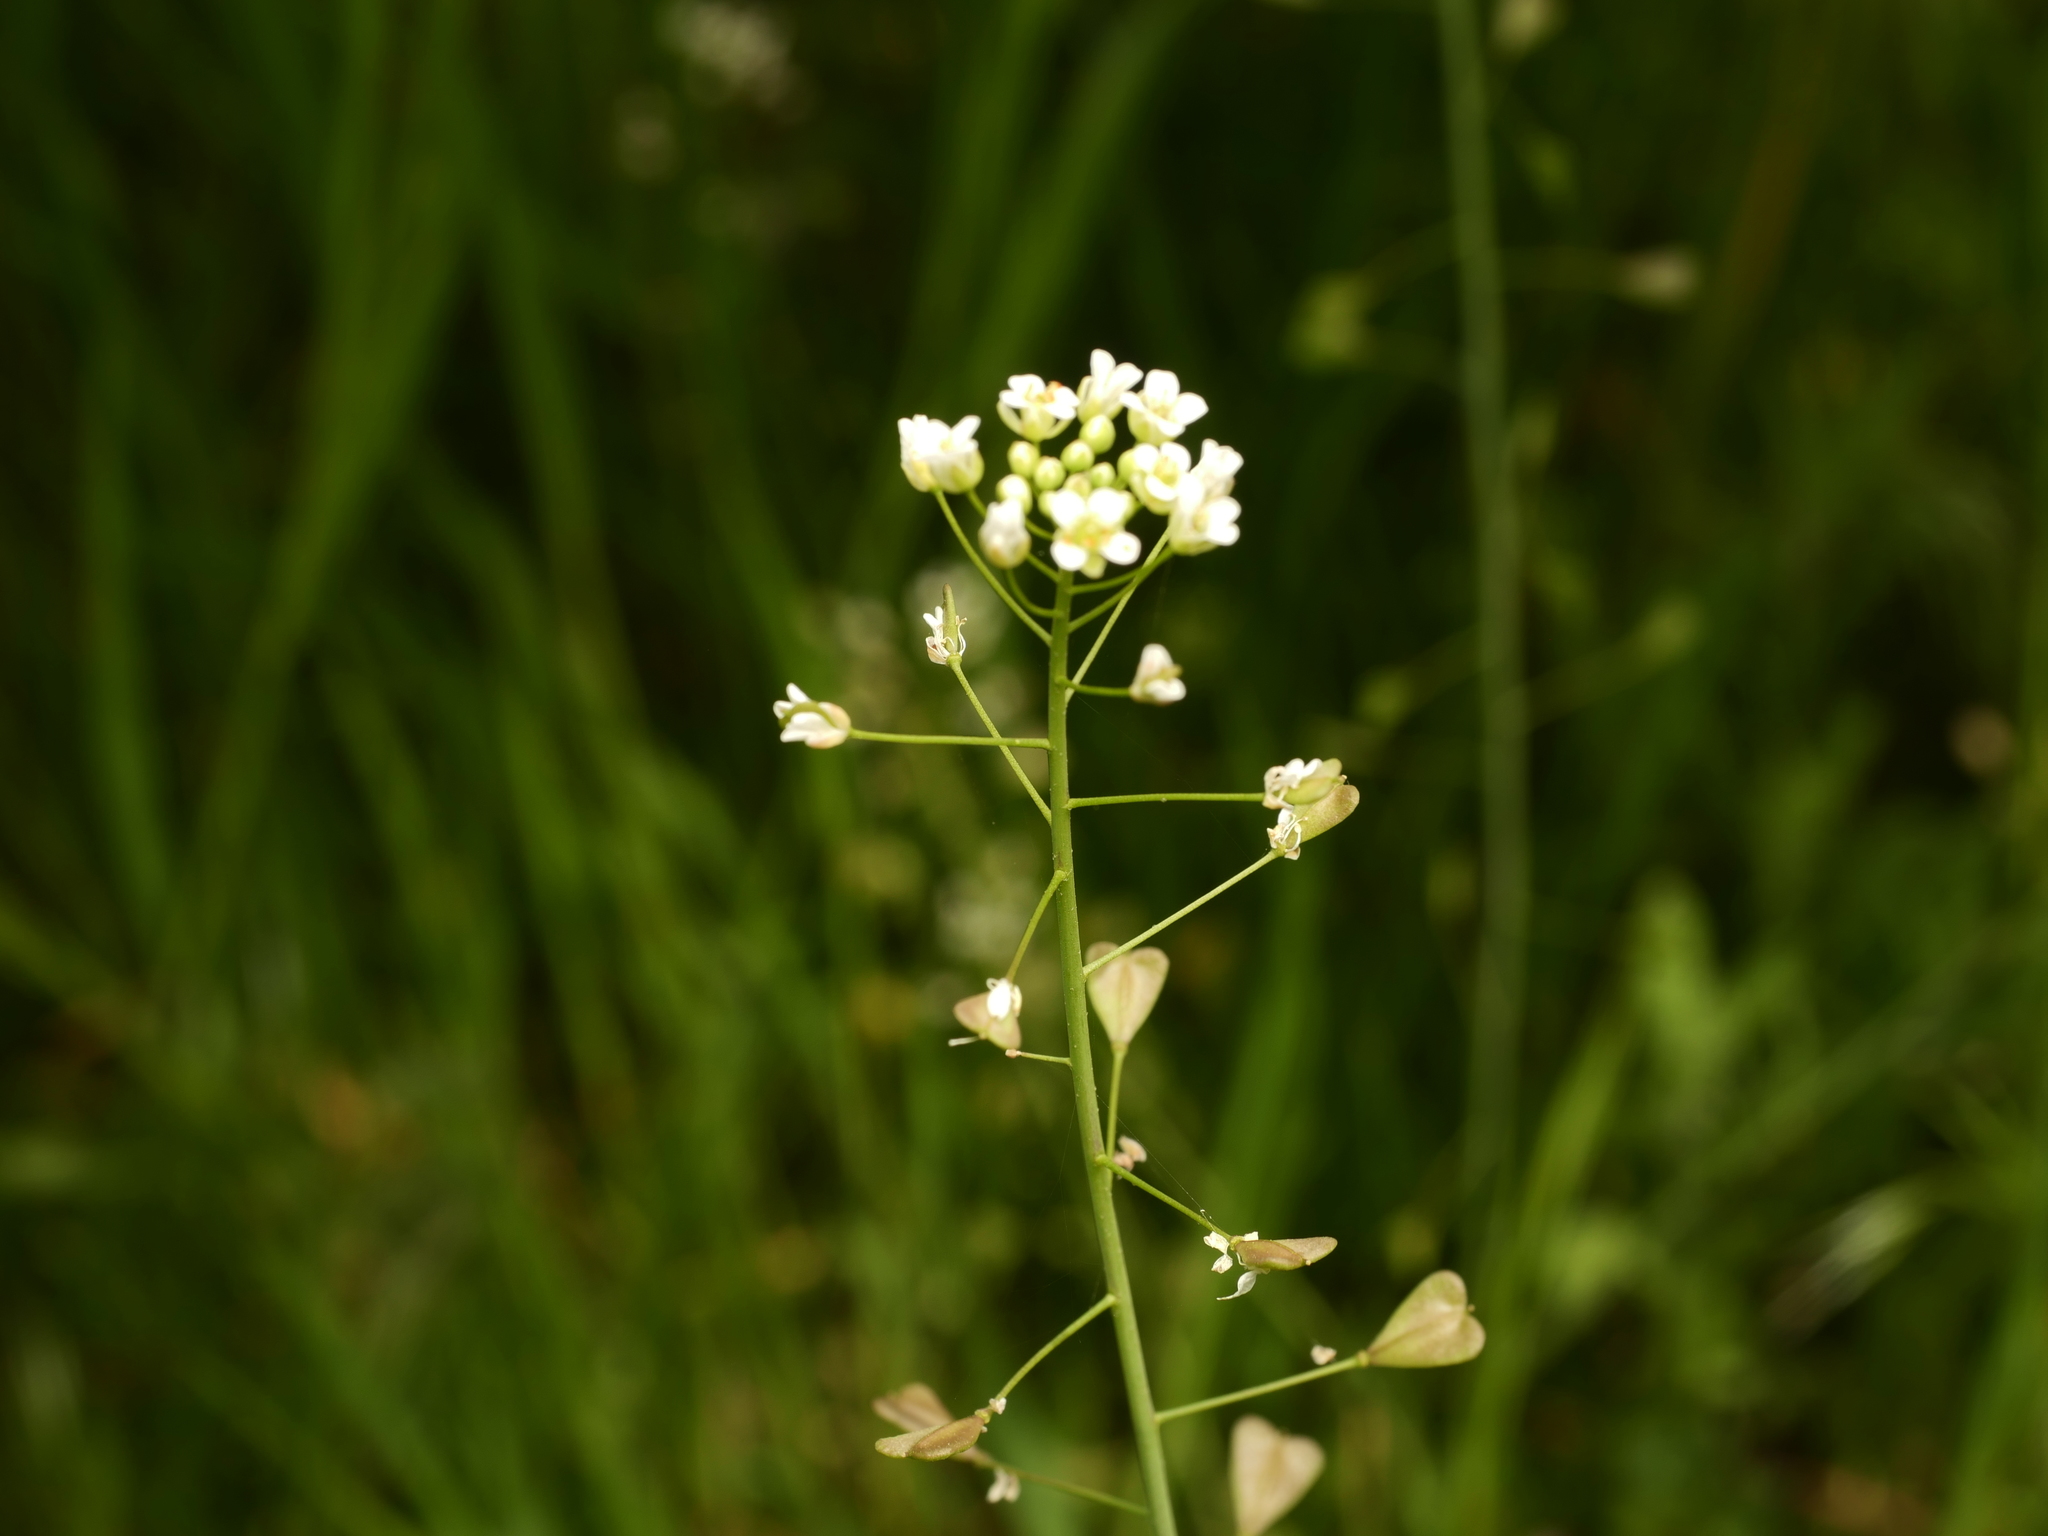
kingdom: Plantae
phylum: Tracheophyta
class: Magnoliopsida
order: Brassicales
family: Brassicaceae
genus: Capsella
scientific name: Capsella bursa-pastoris
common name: Shepherd's purse
